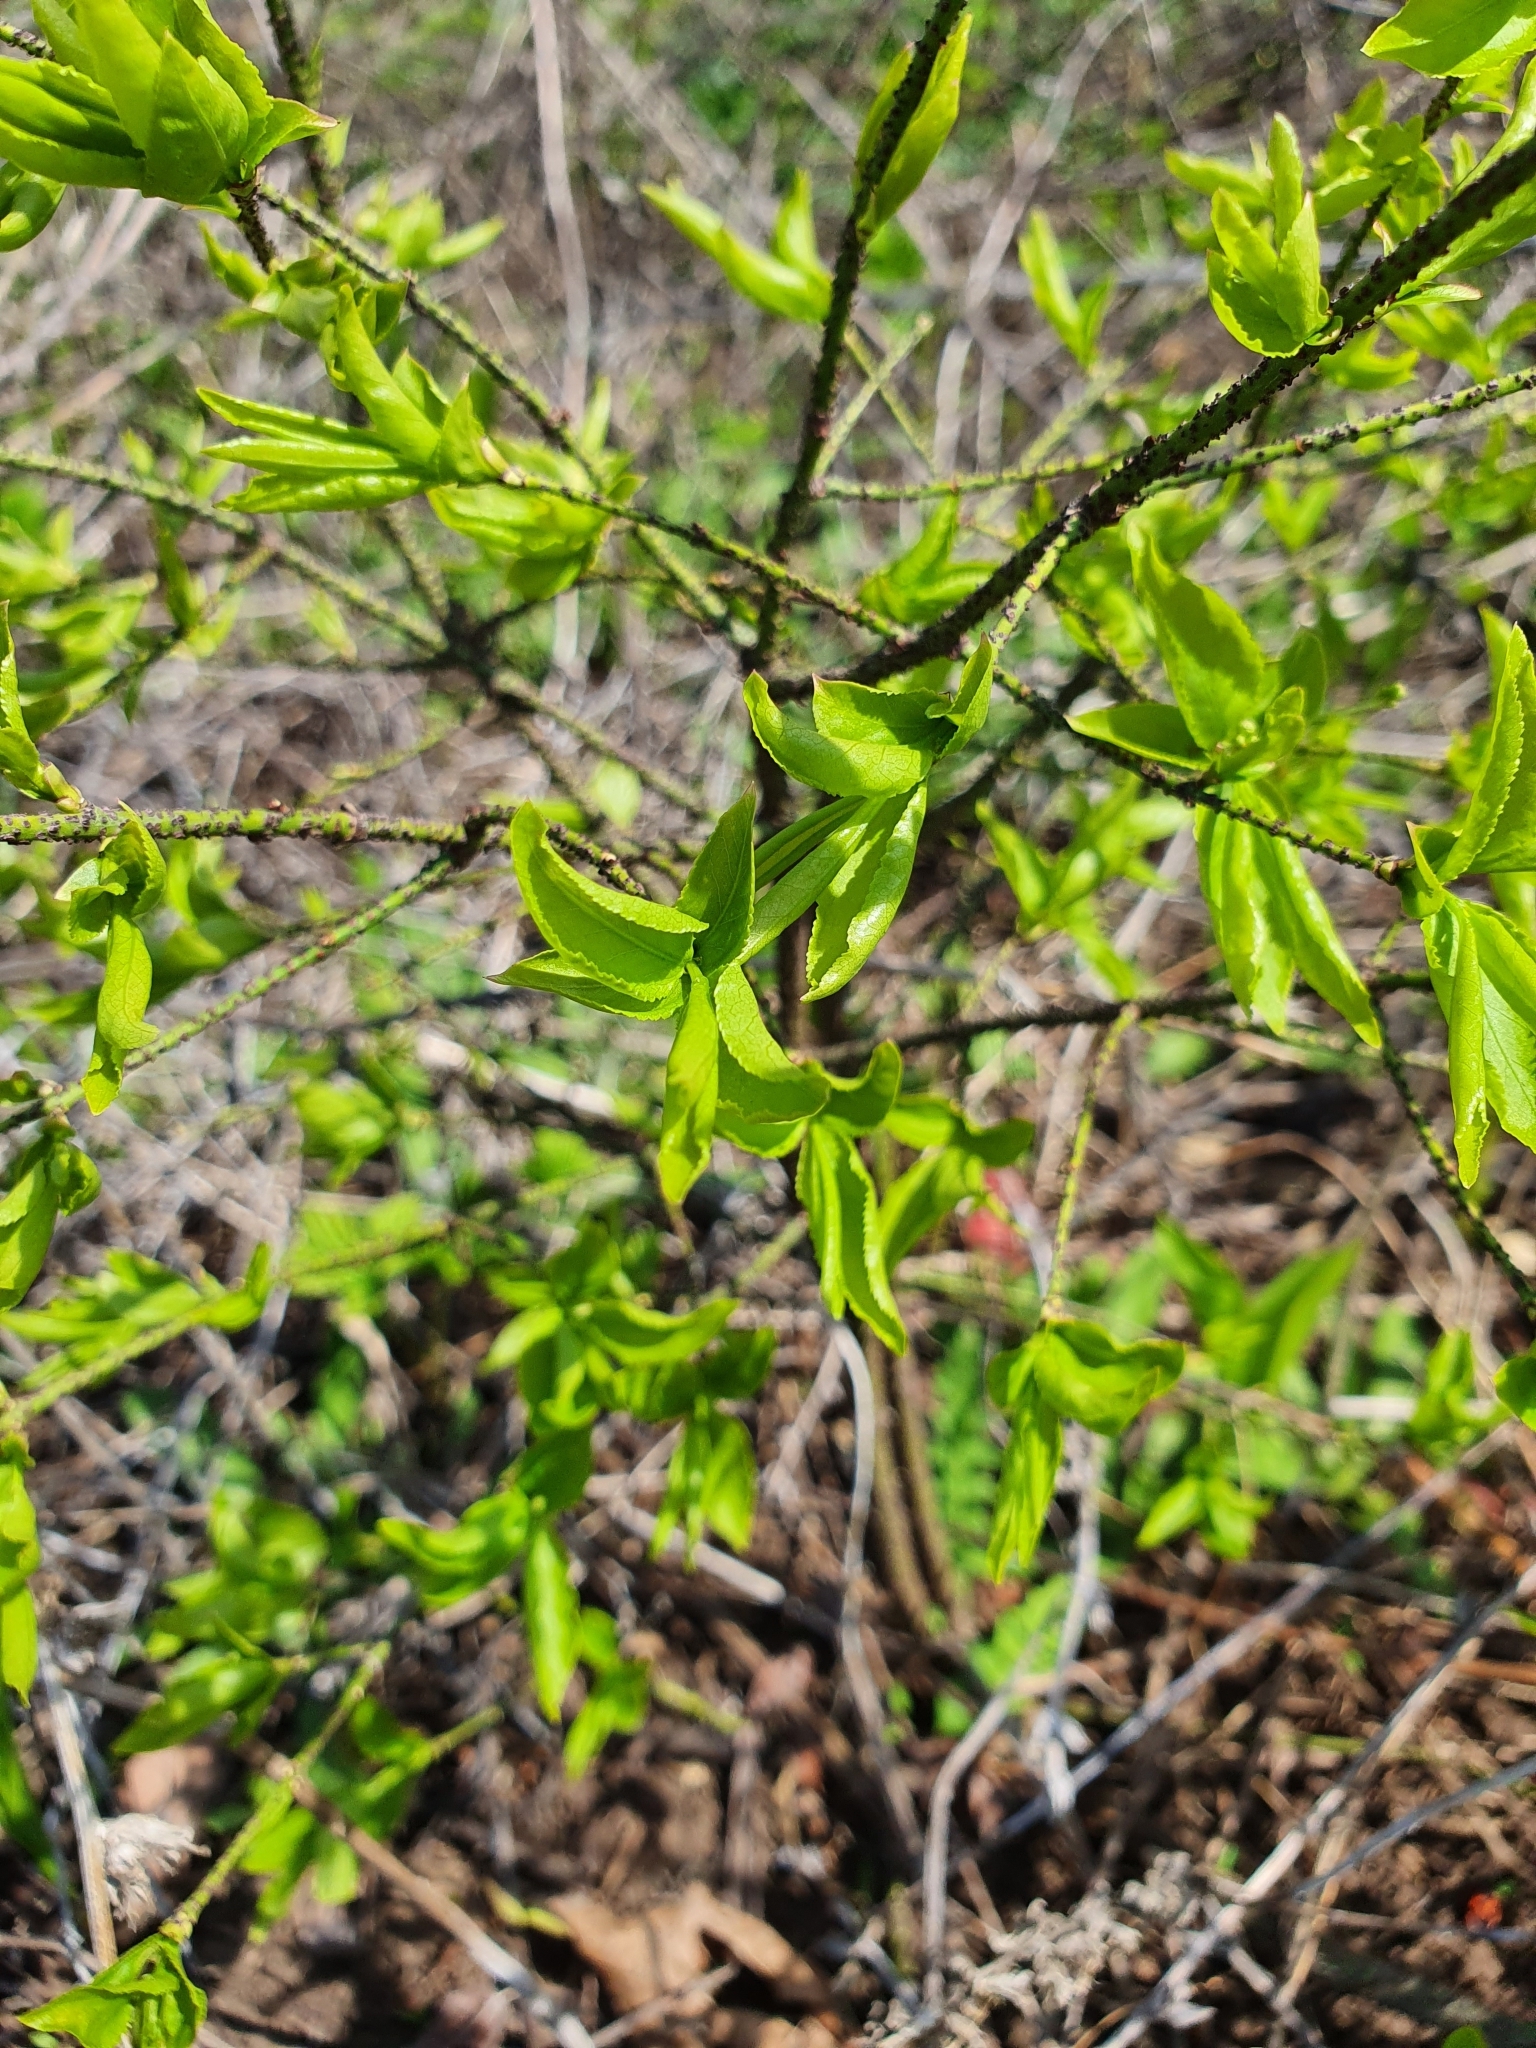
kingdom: Plantae
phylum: Tracheophyta
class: Magnoliopsida
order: Celastrales
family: Celastraceae
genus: Euonymus
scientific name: Euonymus verrucosus
